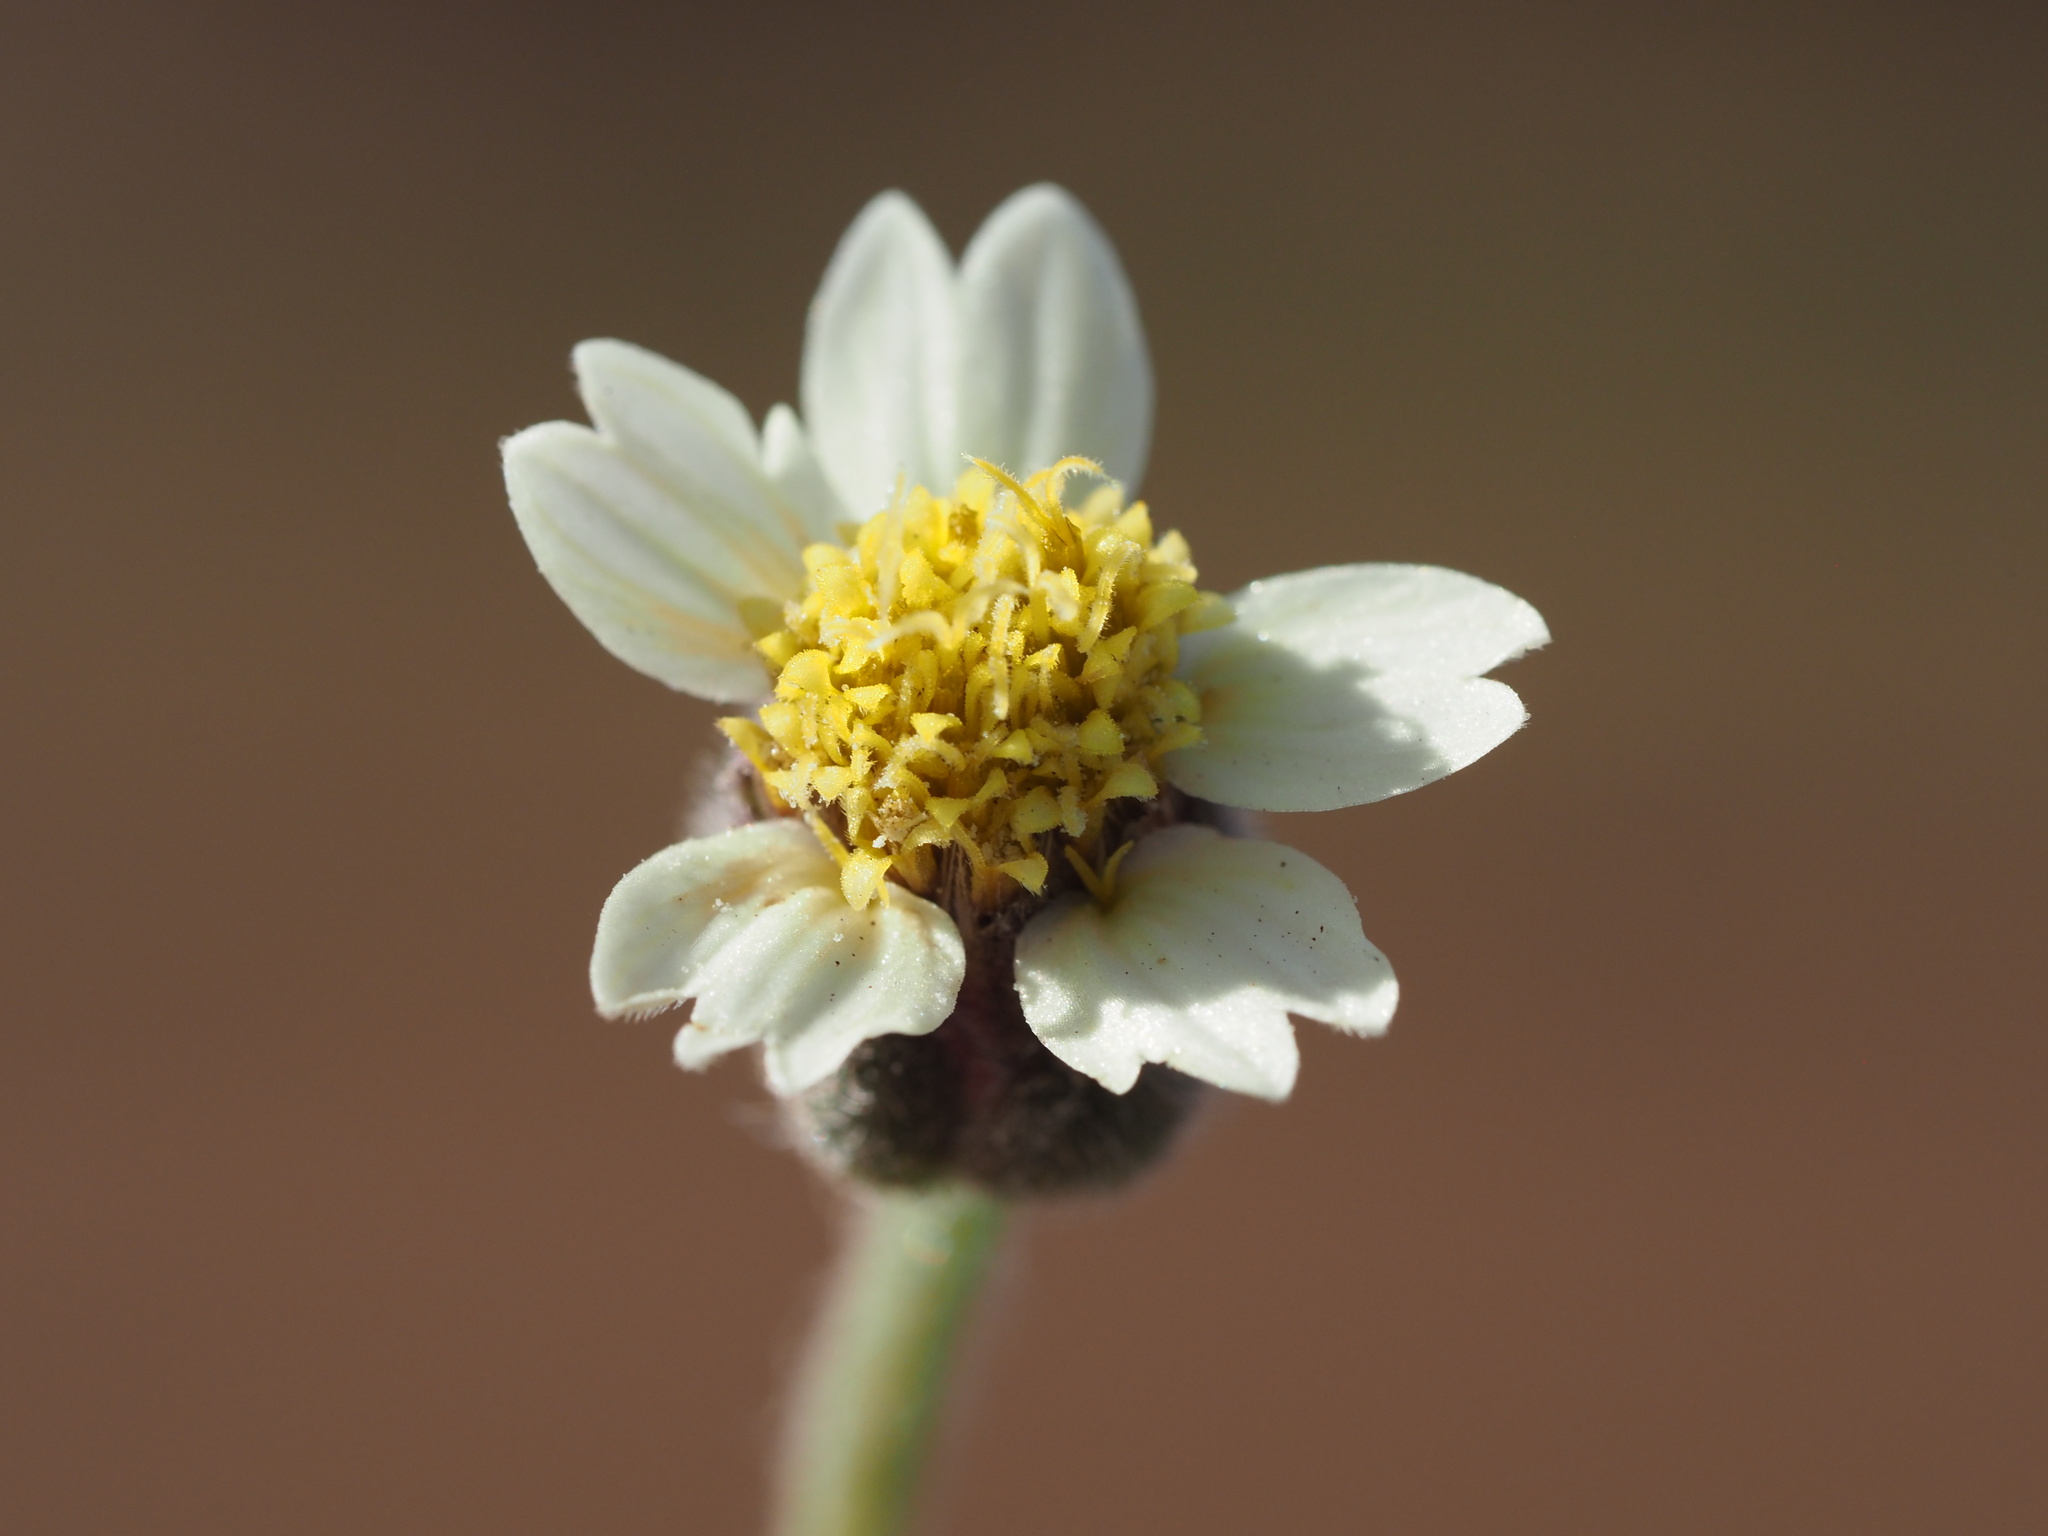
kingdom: Plantae
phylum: Tracheophyta
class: Magnoliopsida
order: Asterales
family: Asteraceae
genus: Tridax
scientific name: Tridax procumbens
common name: Coatbuttons
